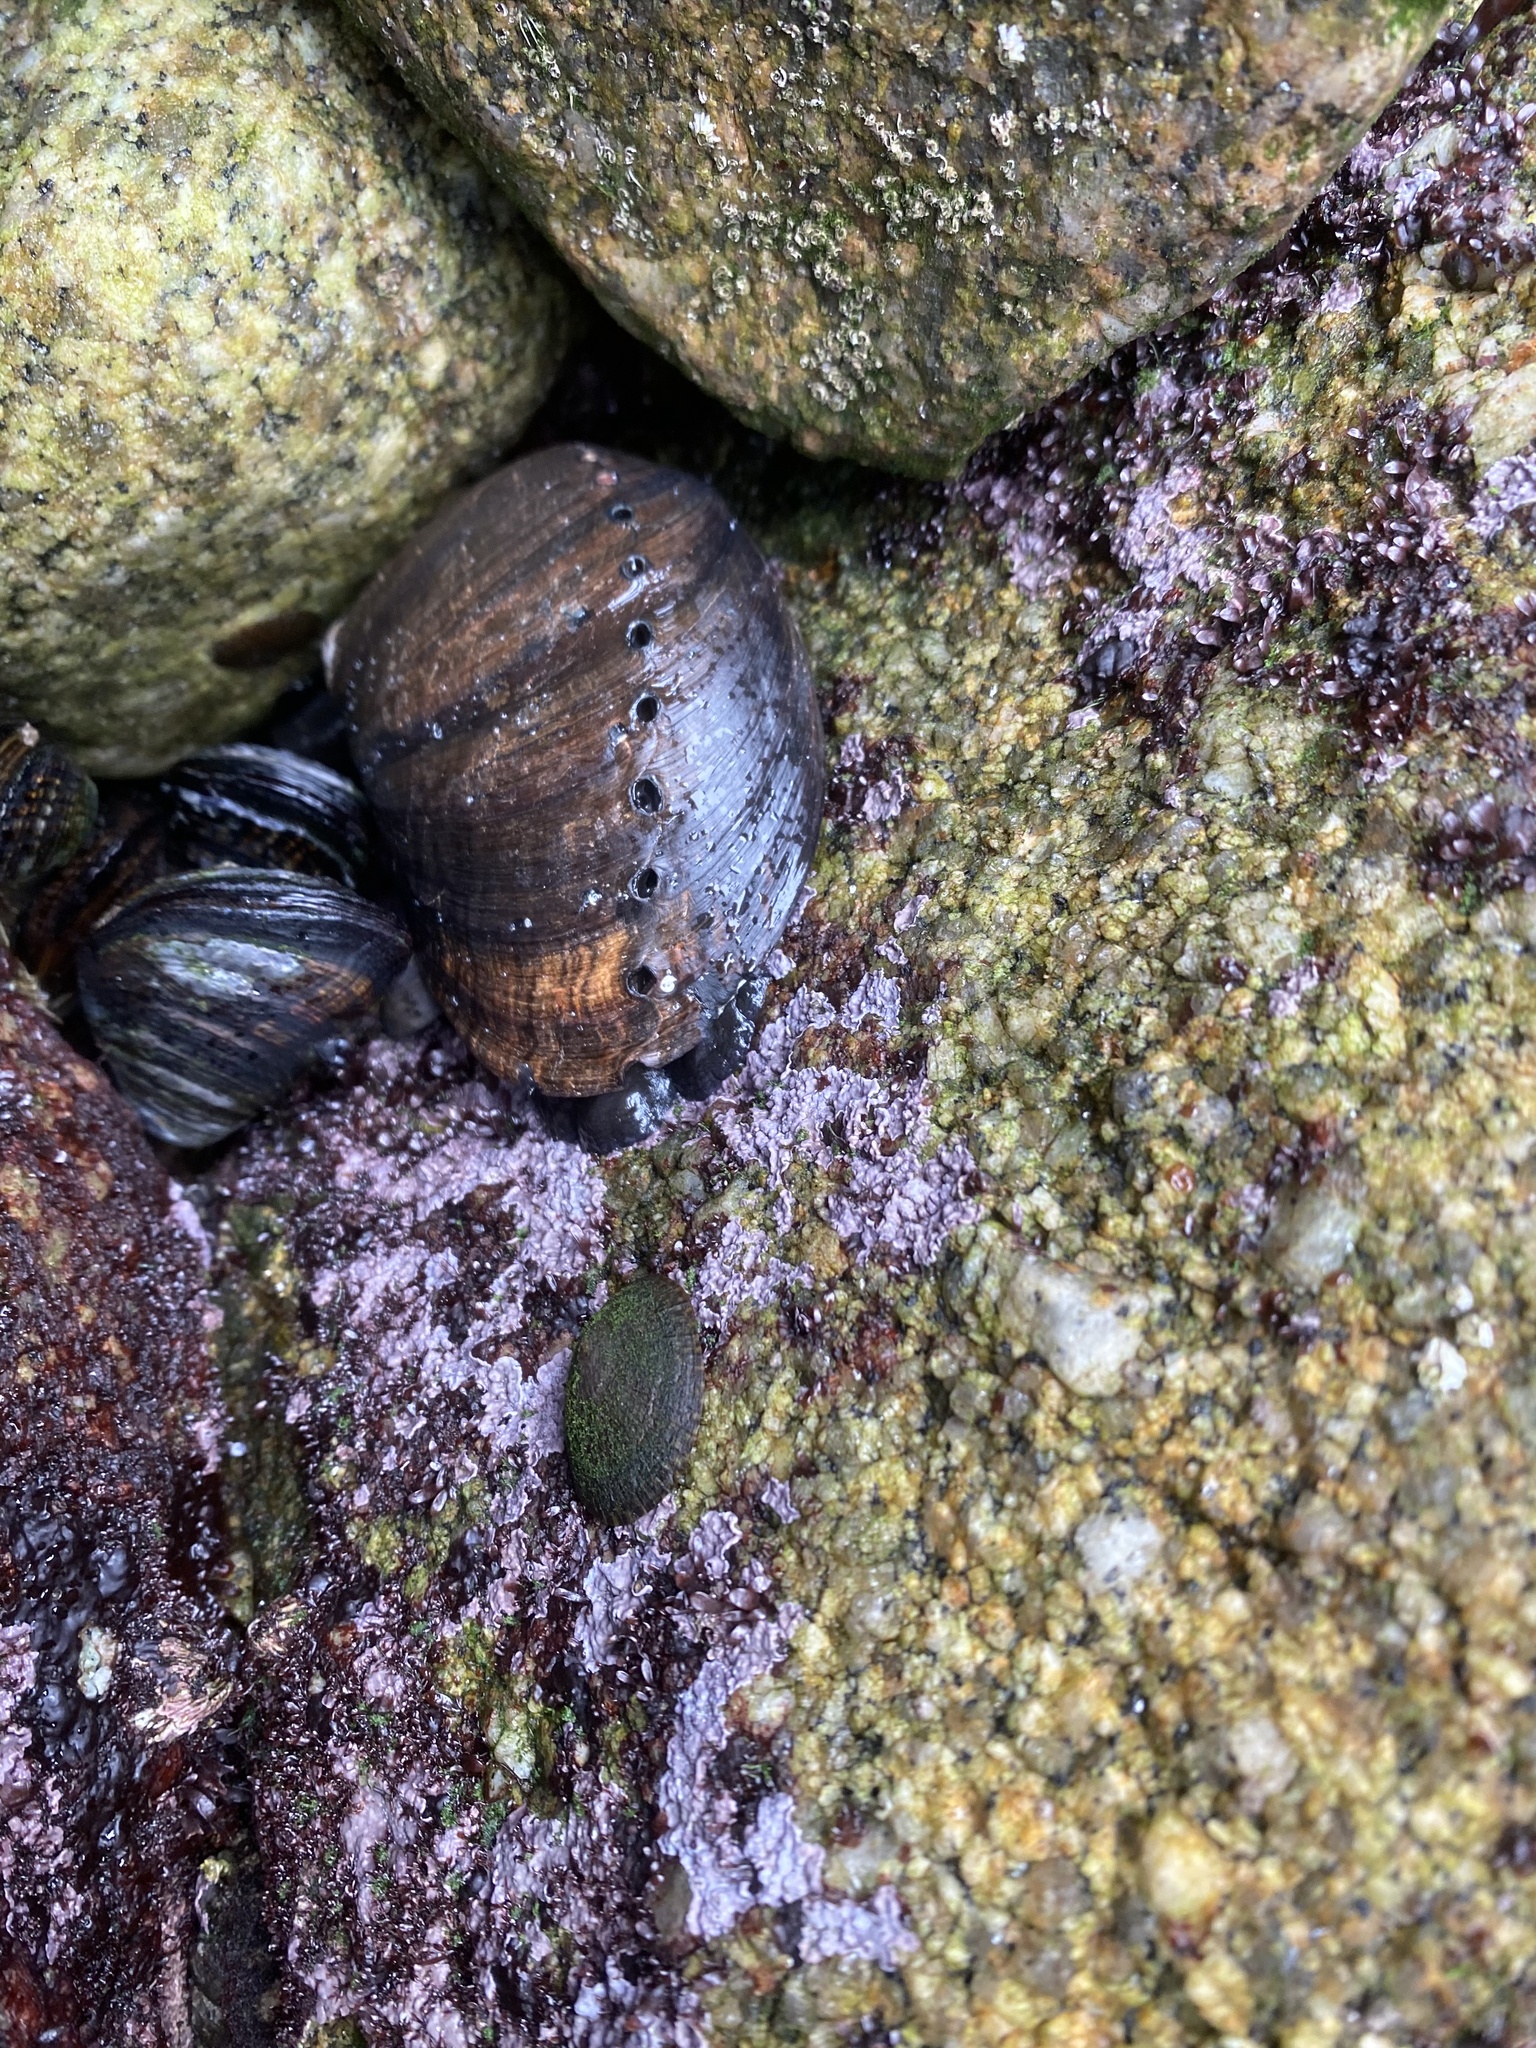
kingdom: Animalia
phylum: Mollusca
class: Gastropoda
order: Lepetellida
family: Haliotidae
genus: Haliotis
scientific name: Haliotis cracherodii
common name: Black abalone
